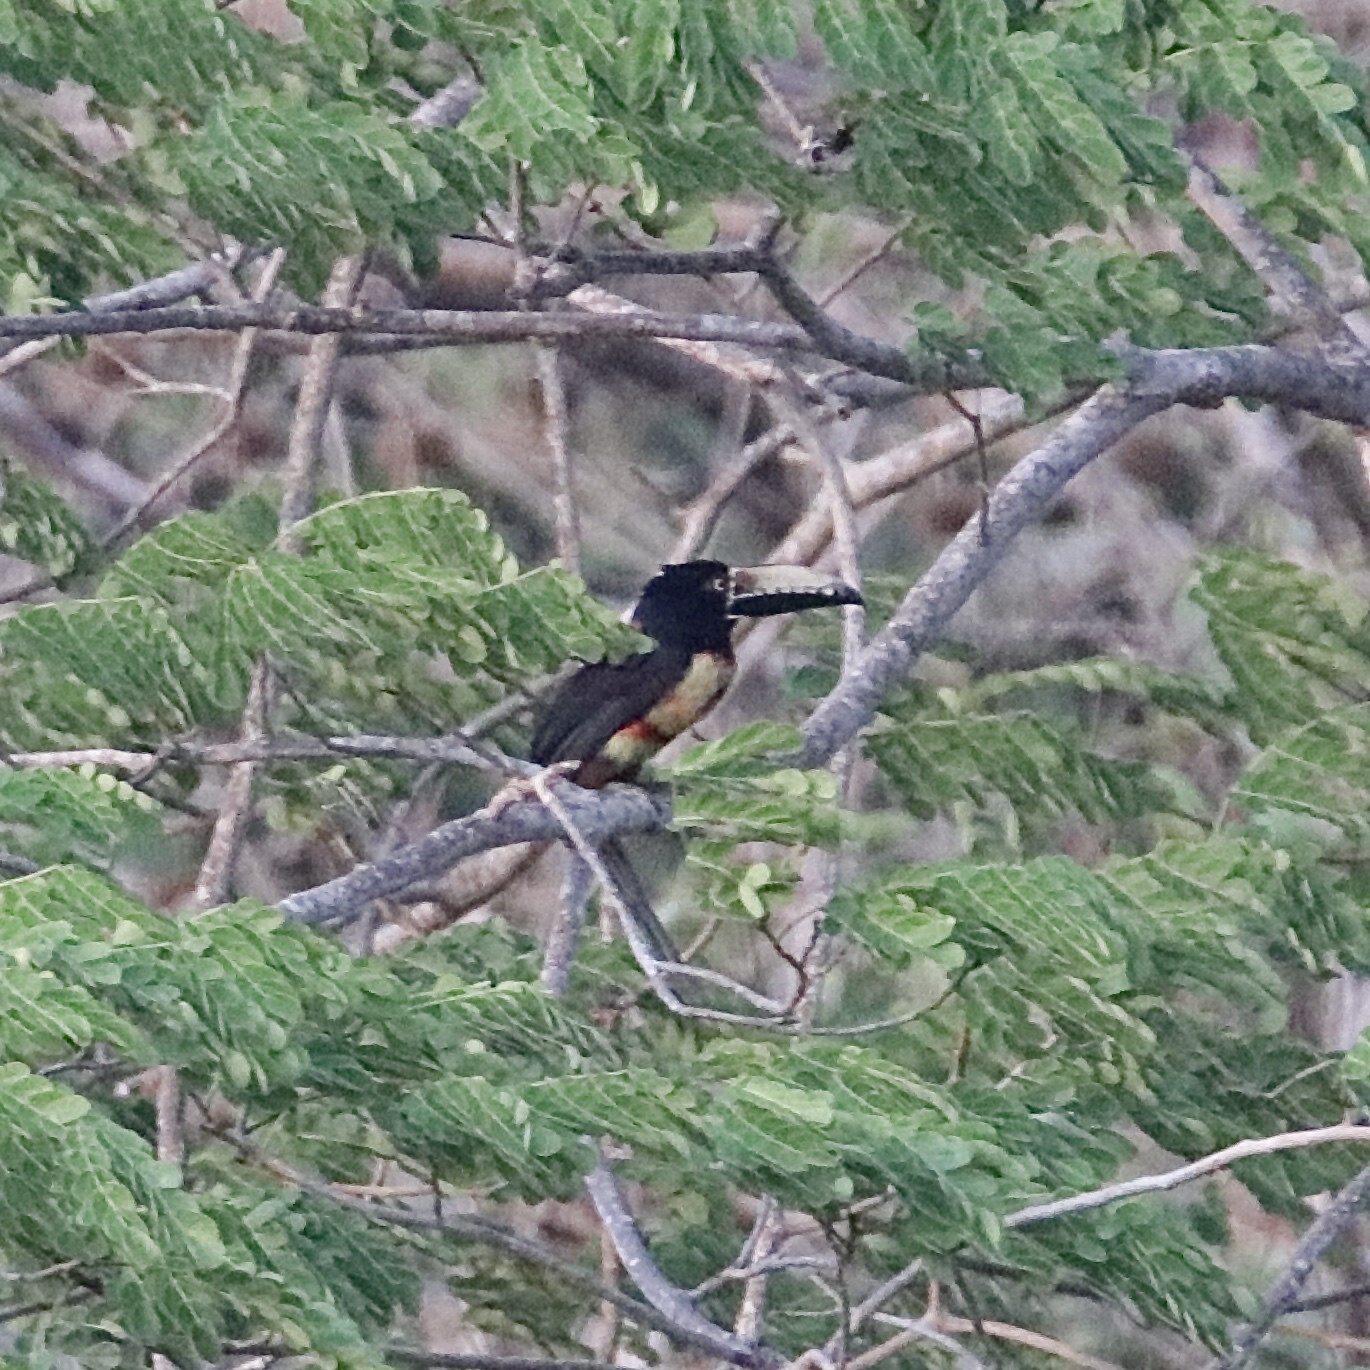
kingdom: Animalia
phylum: Chordata
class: Aves
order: Piciformes
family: Ramphastidae
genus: Pteroglossus
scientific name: Pteroglossus torquatus
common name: Collared aracari
